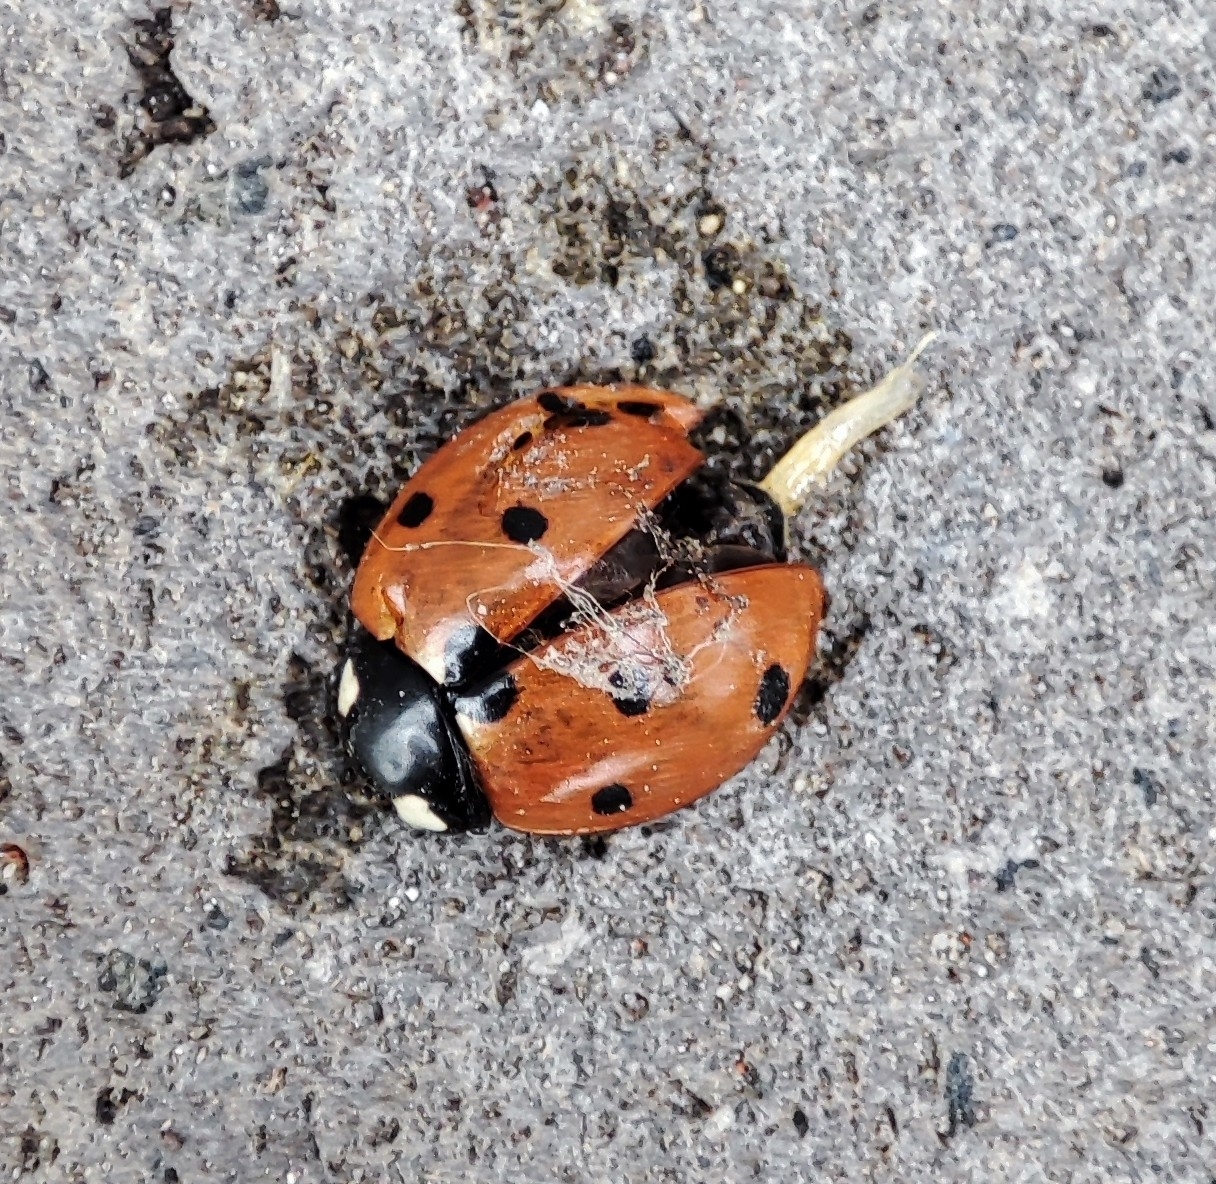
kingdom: Animalia
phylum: Arthropoda
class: Insecta
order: Coleoptera
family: Coccinellidae
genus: Coccinella
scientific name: Coccinella septempunctata
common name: Sevenspotted lady beetle
